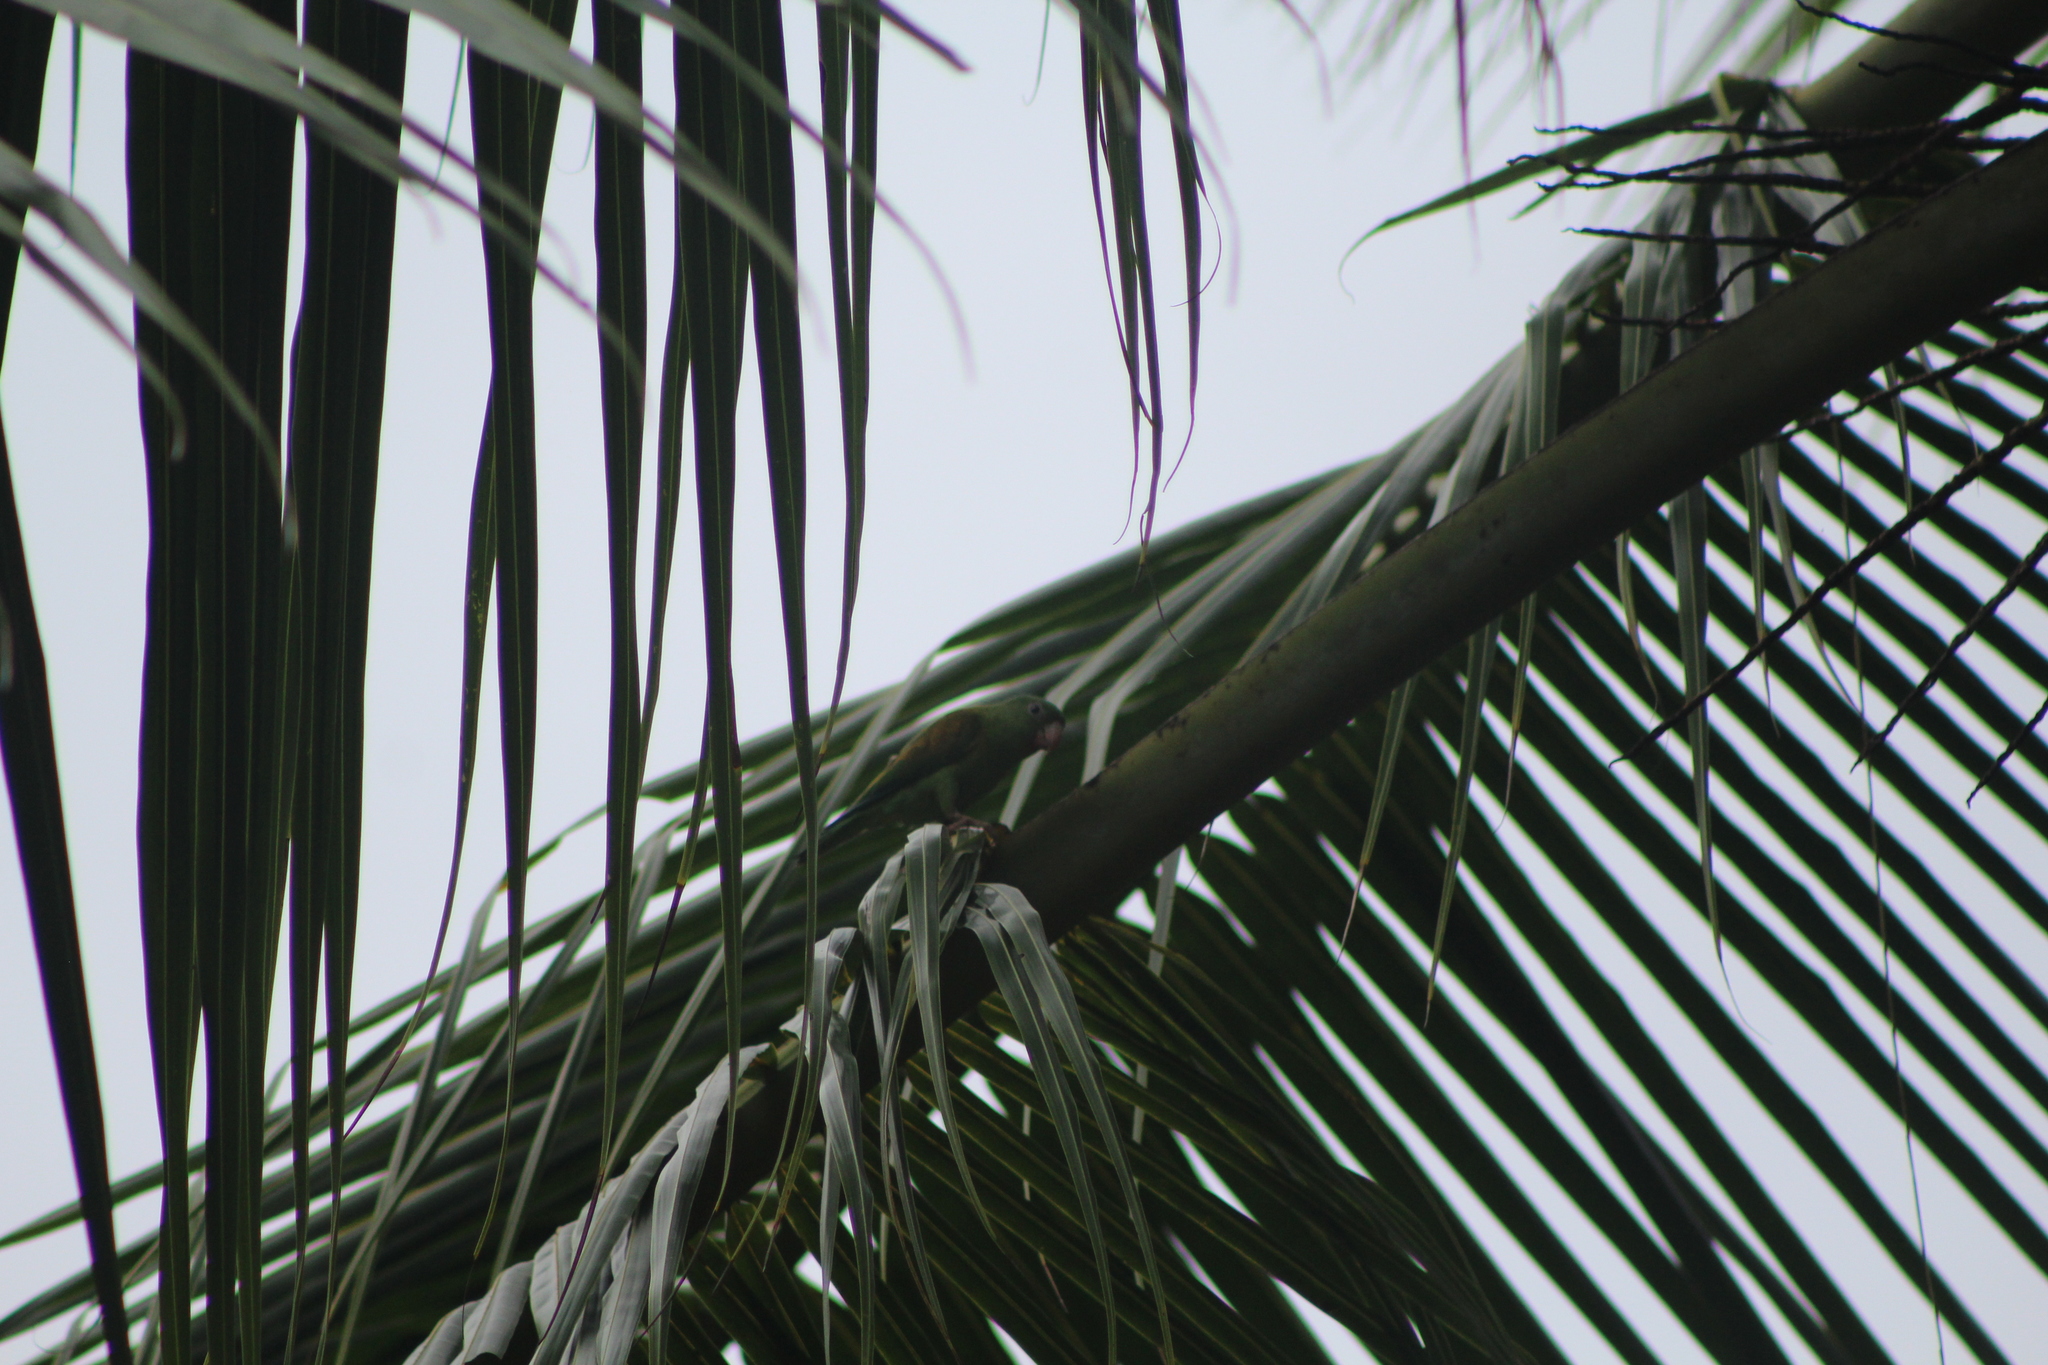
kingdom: Animalia
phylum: Chordata
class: Aves
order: Psittaciformes
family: Psittacidae
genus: Brotogeris
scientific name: Brotogeris jugularis
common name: Orange-chinned parakeet
